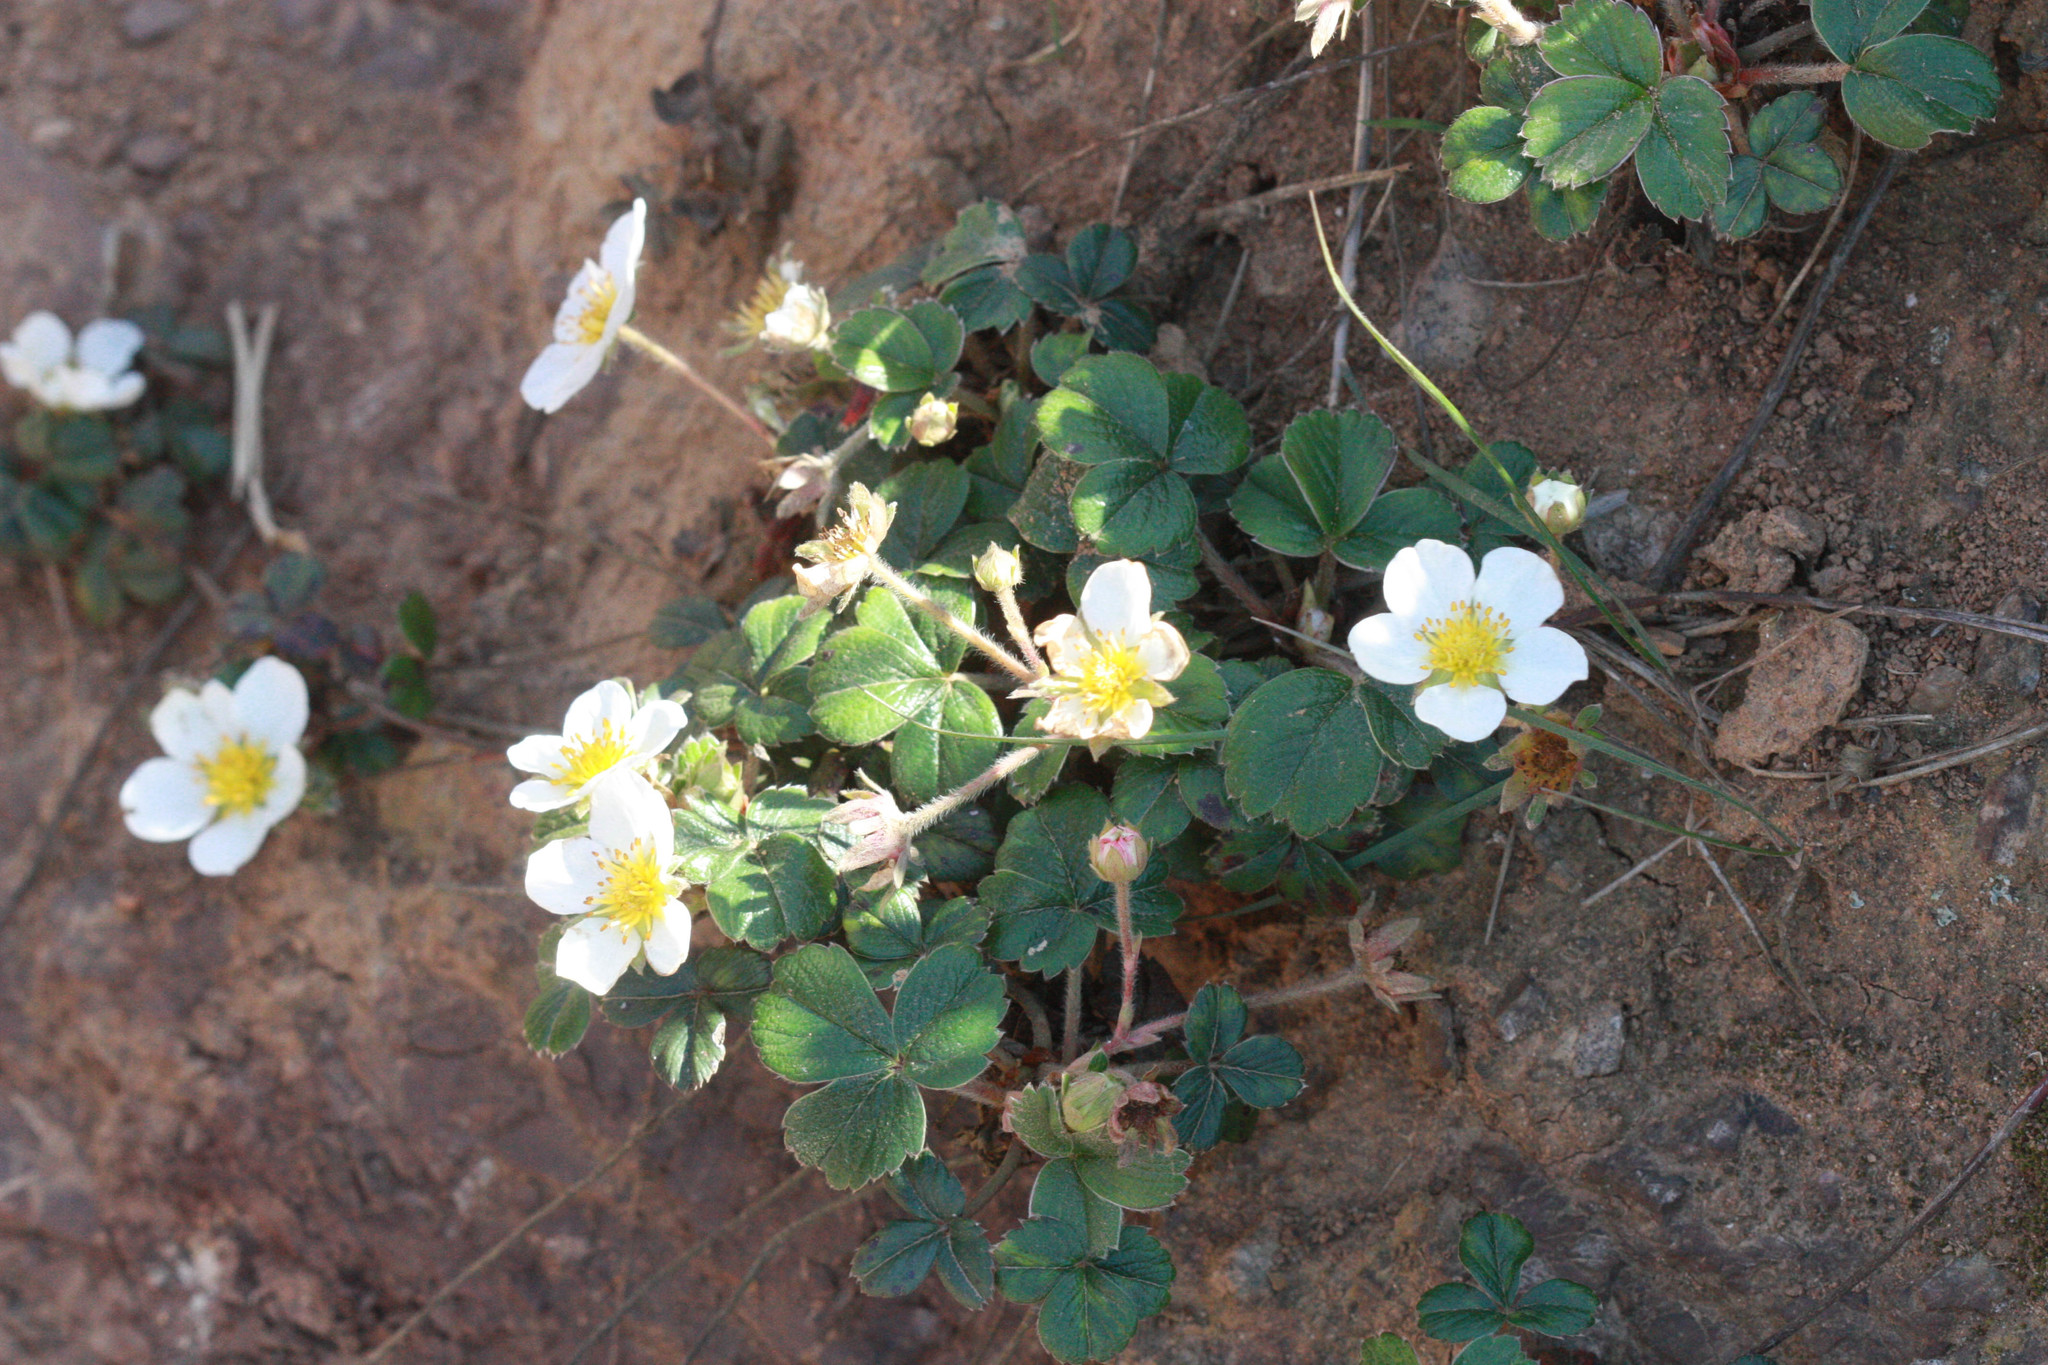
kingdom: Plantae
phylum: Tracheophyta
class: Magnoliopsida
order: Rosales
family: Rosaceae
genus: Fragaria
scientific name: Fragaria chiloensis
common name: Beach strawberry
